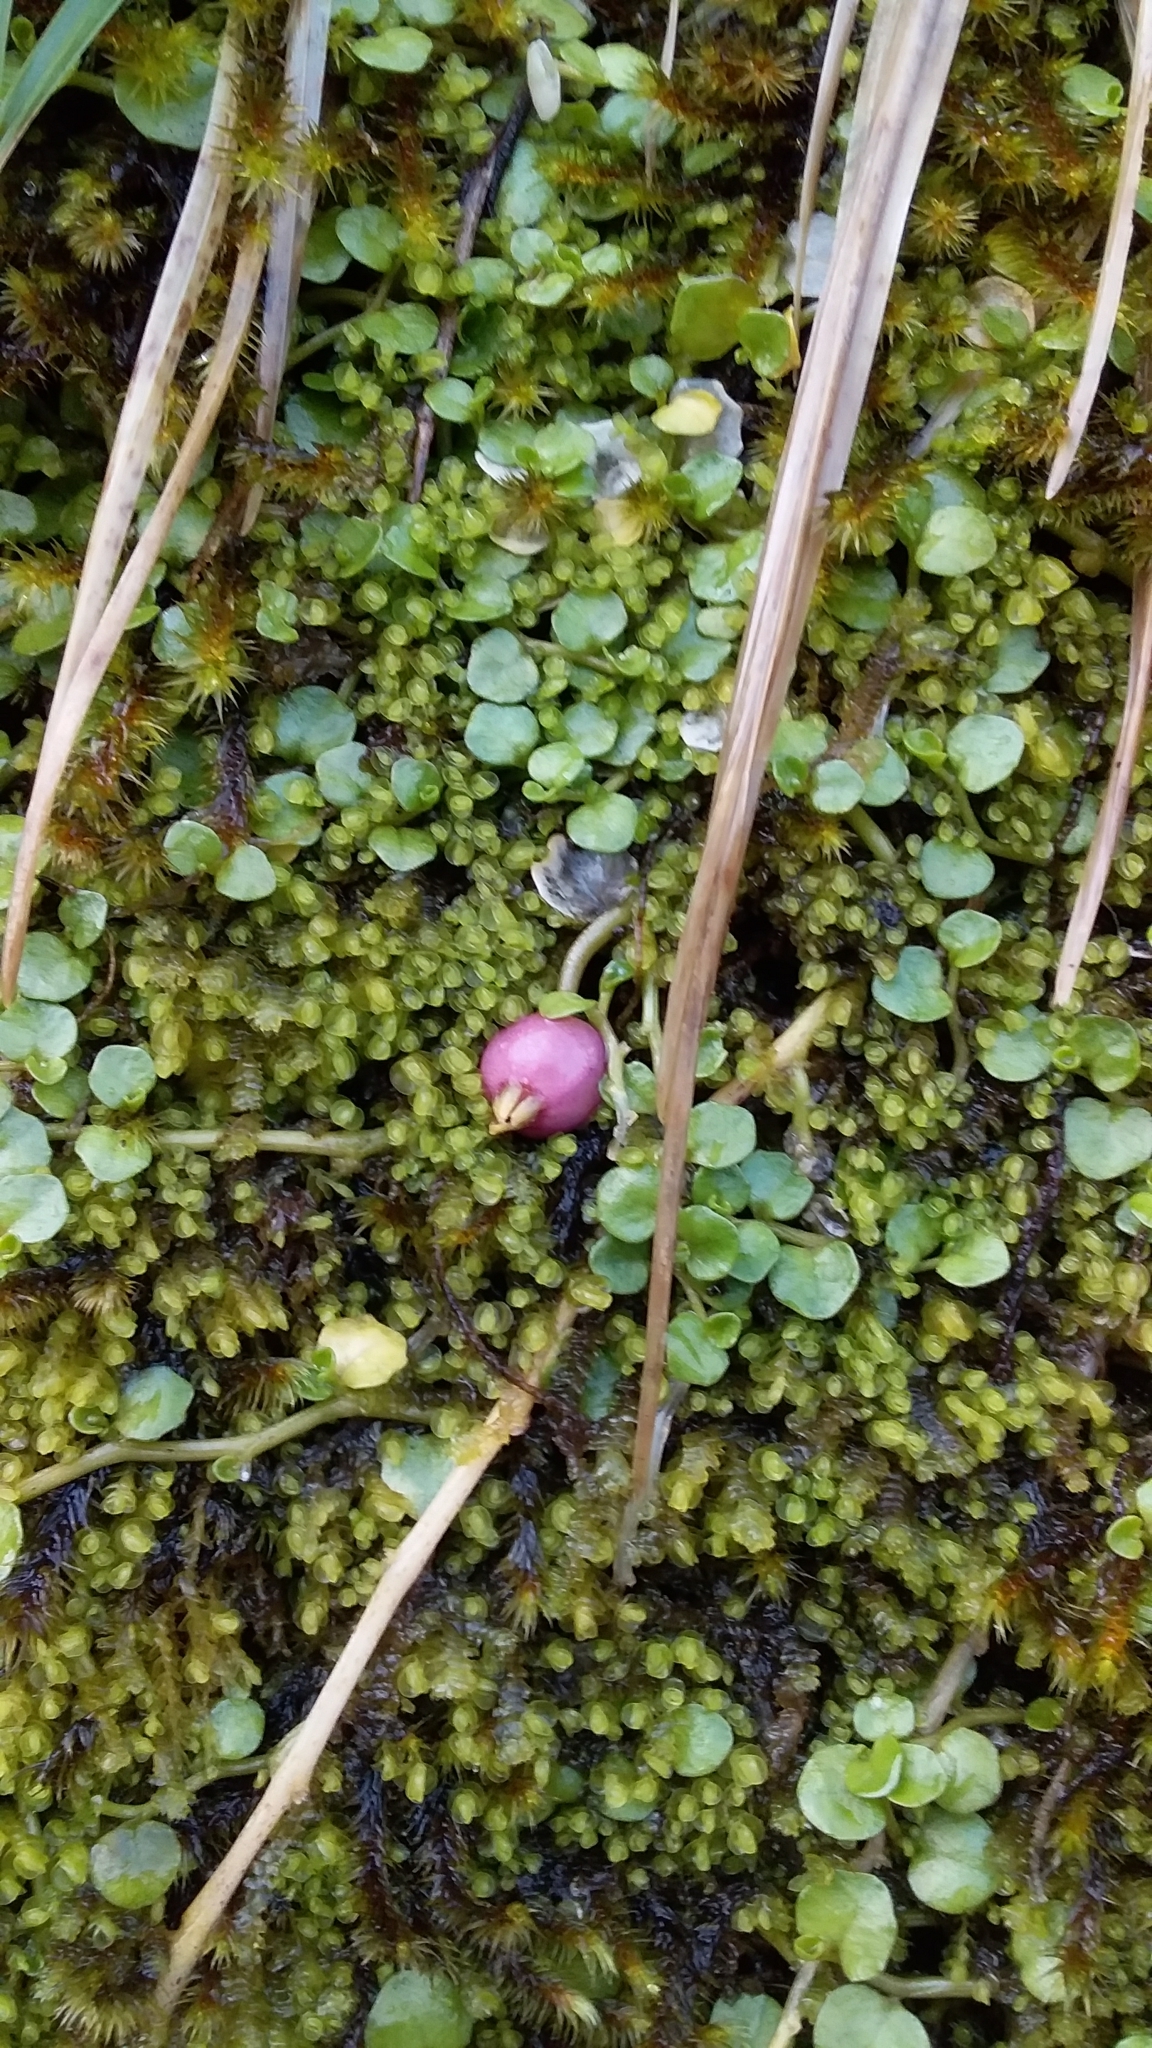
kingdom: Plantae
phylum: Tracheophyta
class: Magnoliopsida
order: Asterales
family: Campanulaceae
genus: Lobelia
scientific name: Lobelia angulata
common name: Lawn lobelia
